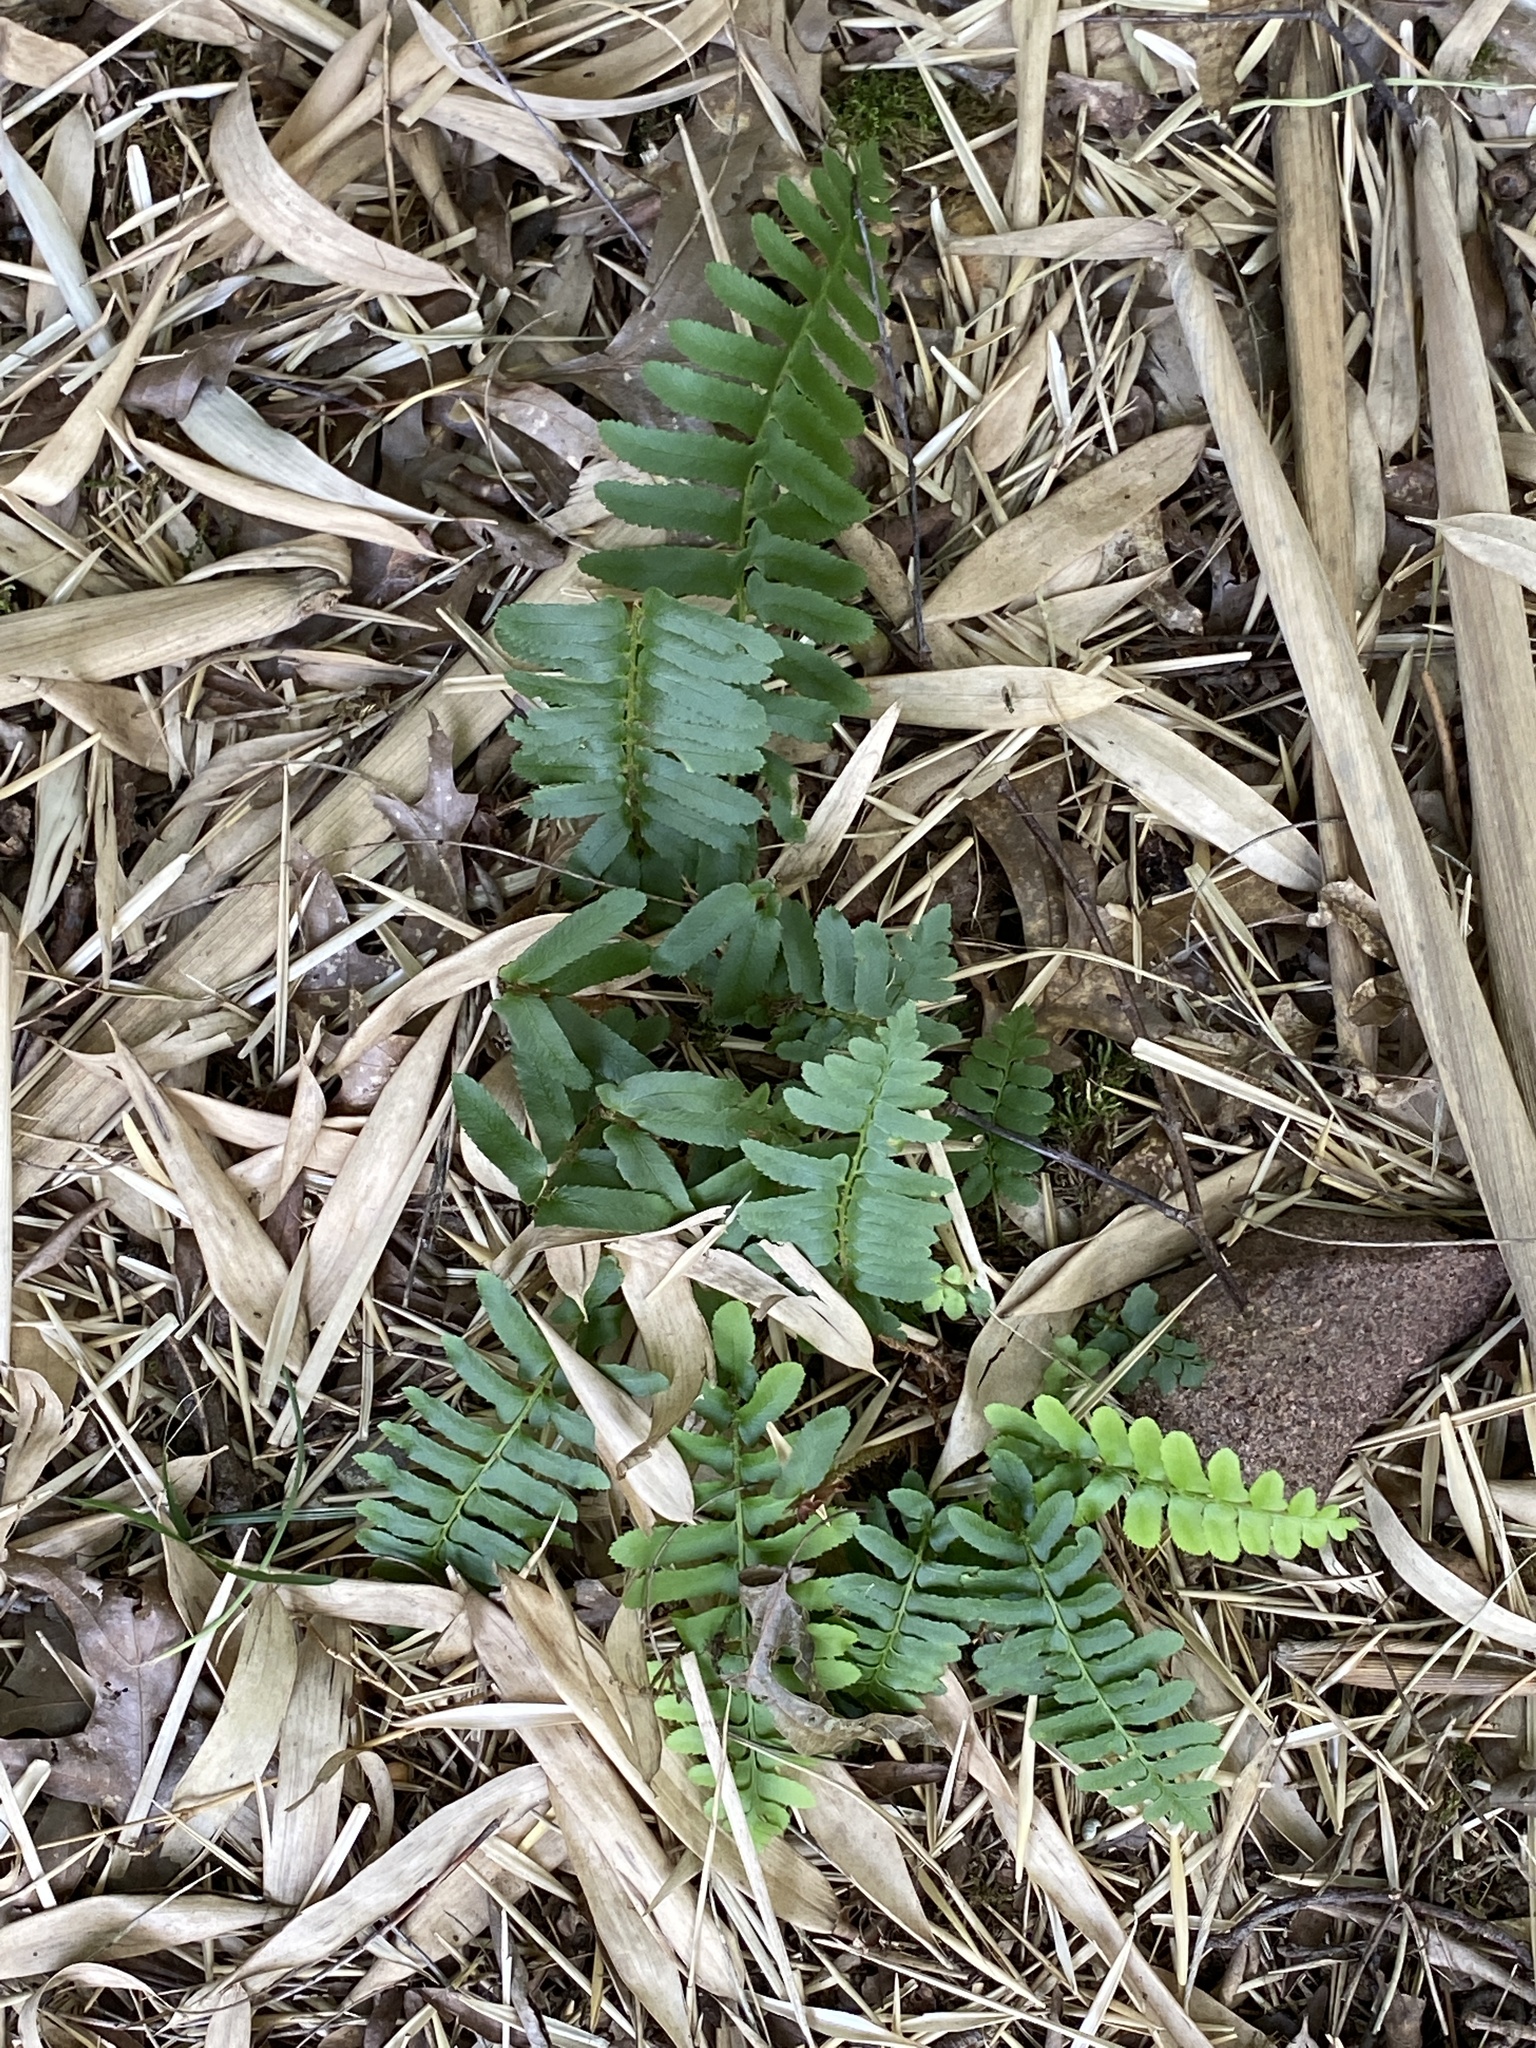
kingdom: Plantae
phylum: Tracheophyta
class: Polypodiopsida
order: Polypodiales
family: Dryopteridaceae
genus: Polystichum
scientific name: Polystichum acrostichoides
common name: Christmas fern
